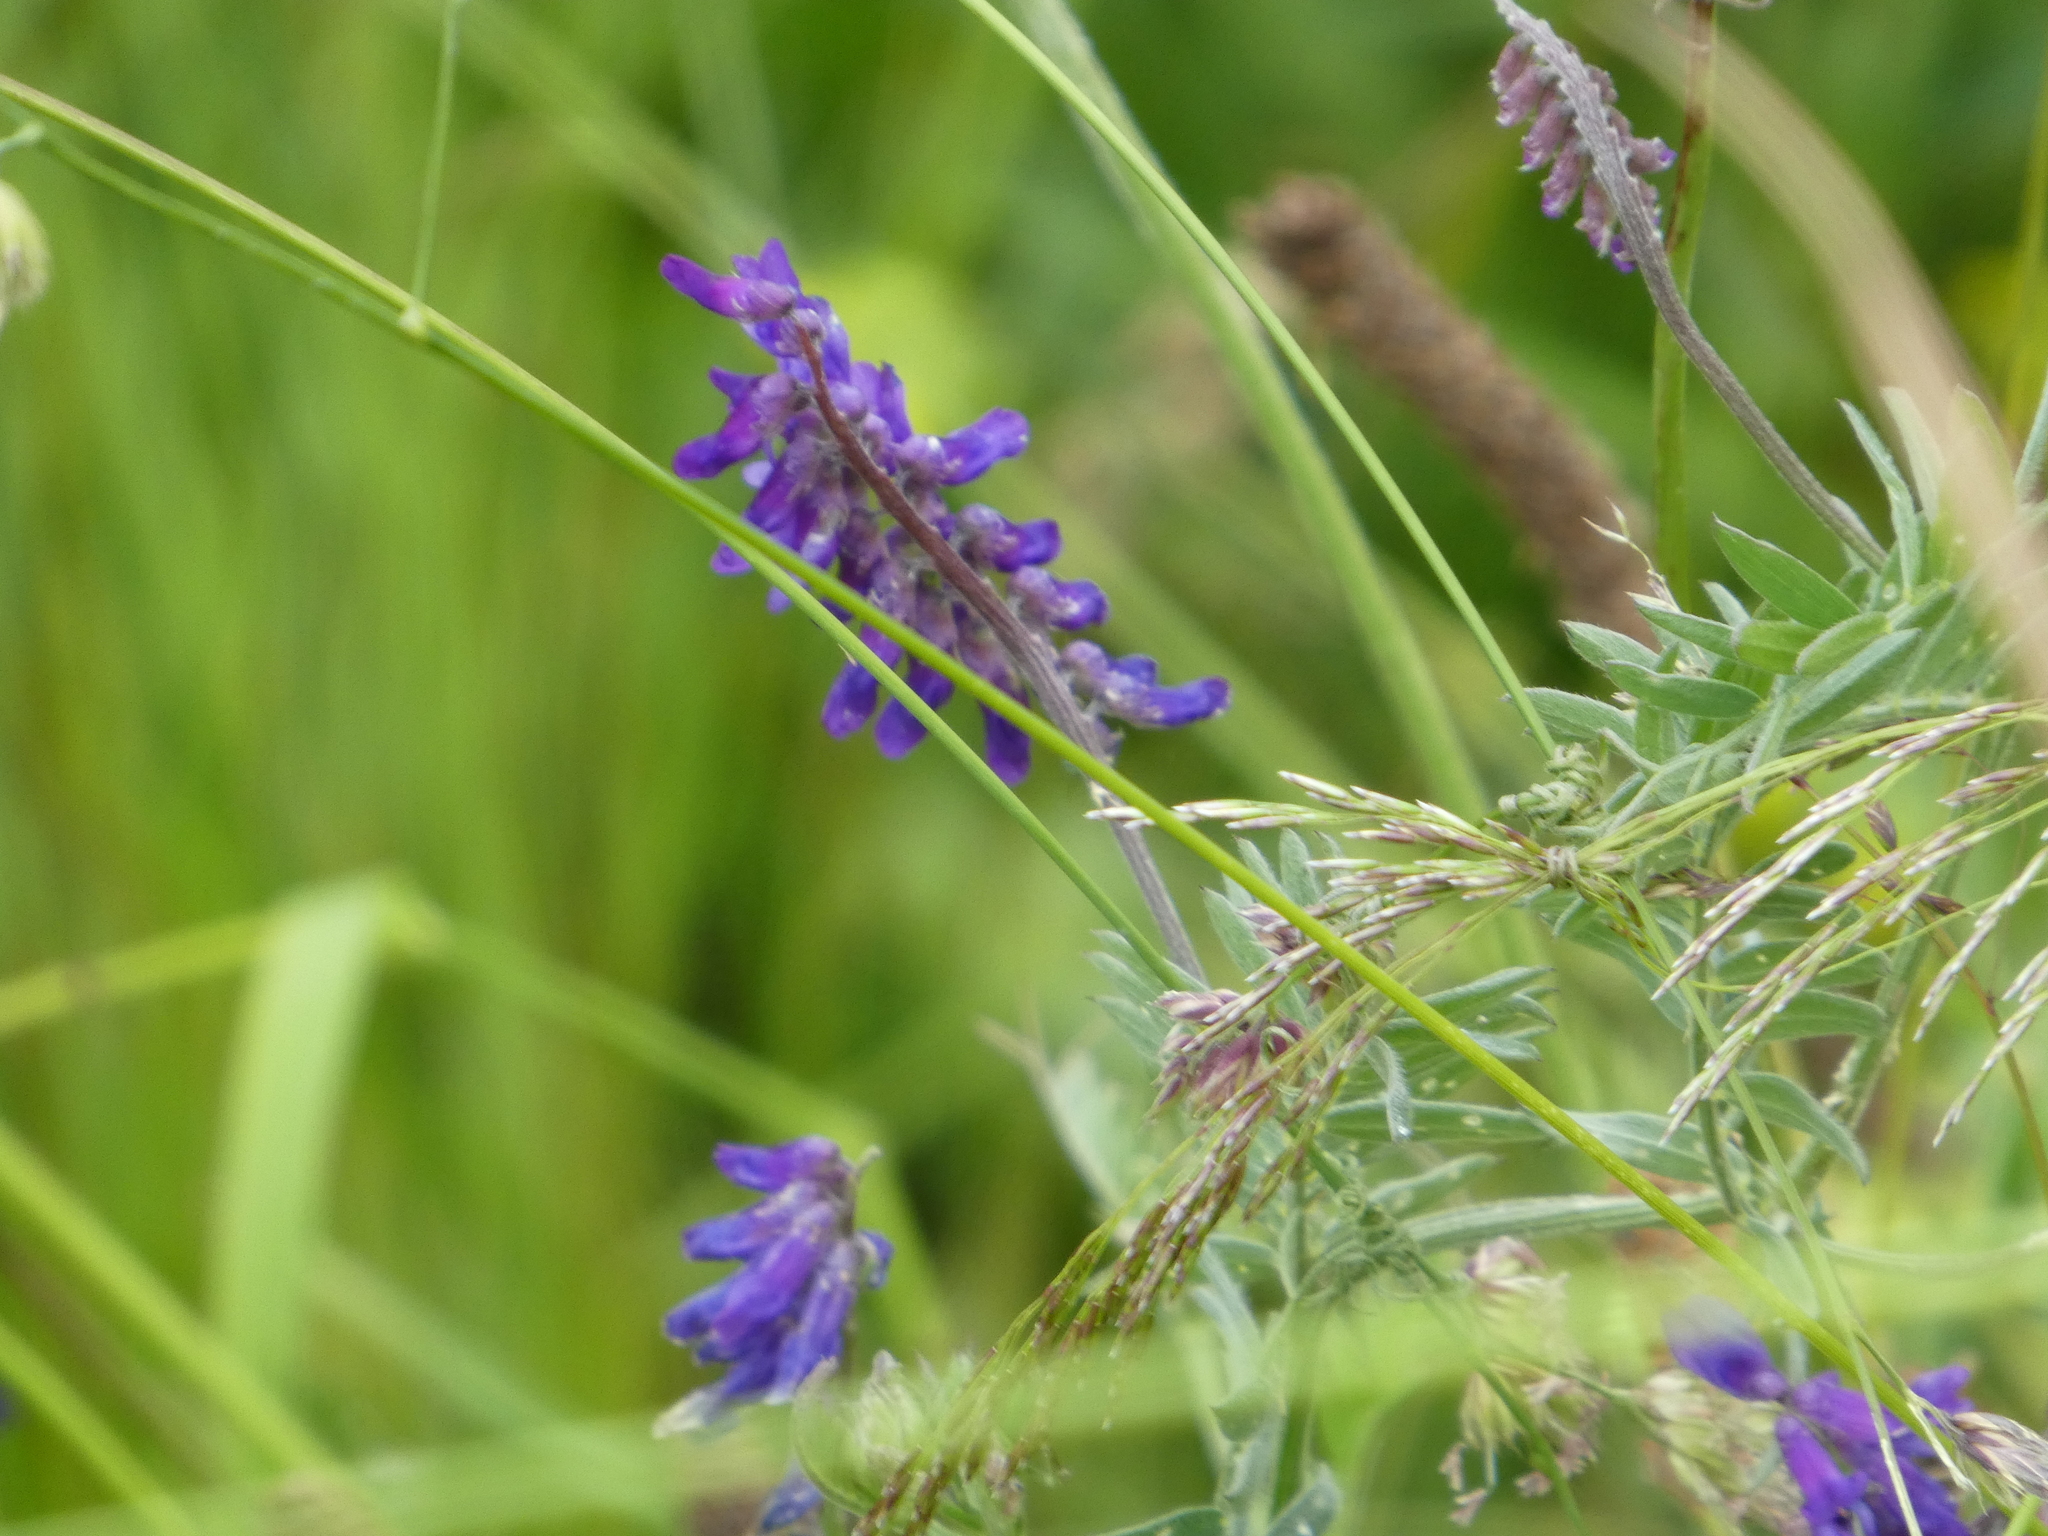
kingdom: Plantae
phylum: Tracheophyta
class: Magnoliopsida
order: Fabales
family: Fabaceae
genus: Vicia
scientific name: Vicia cracca
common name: Bird vetch
